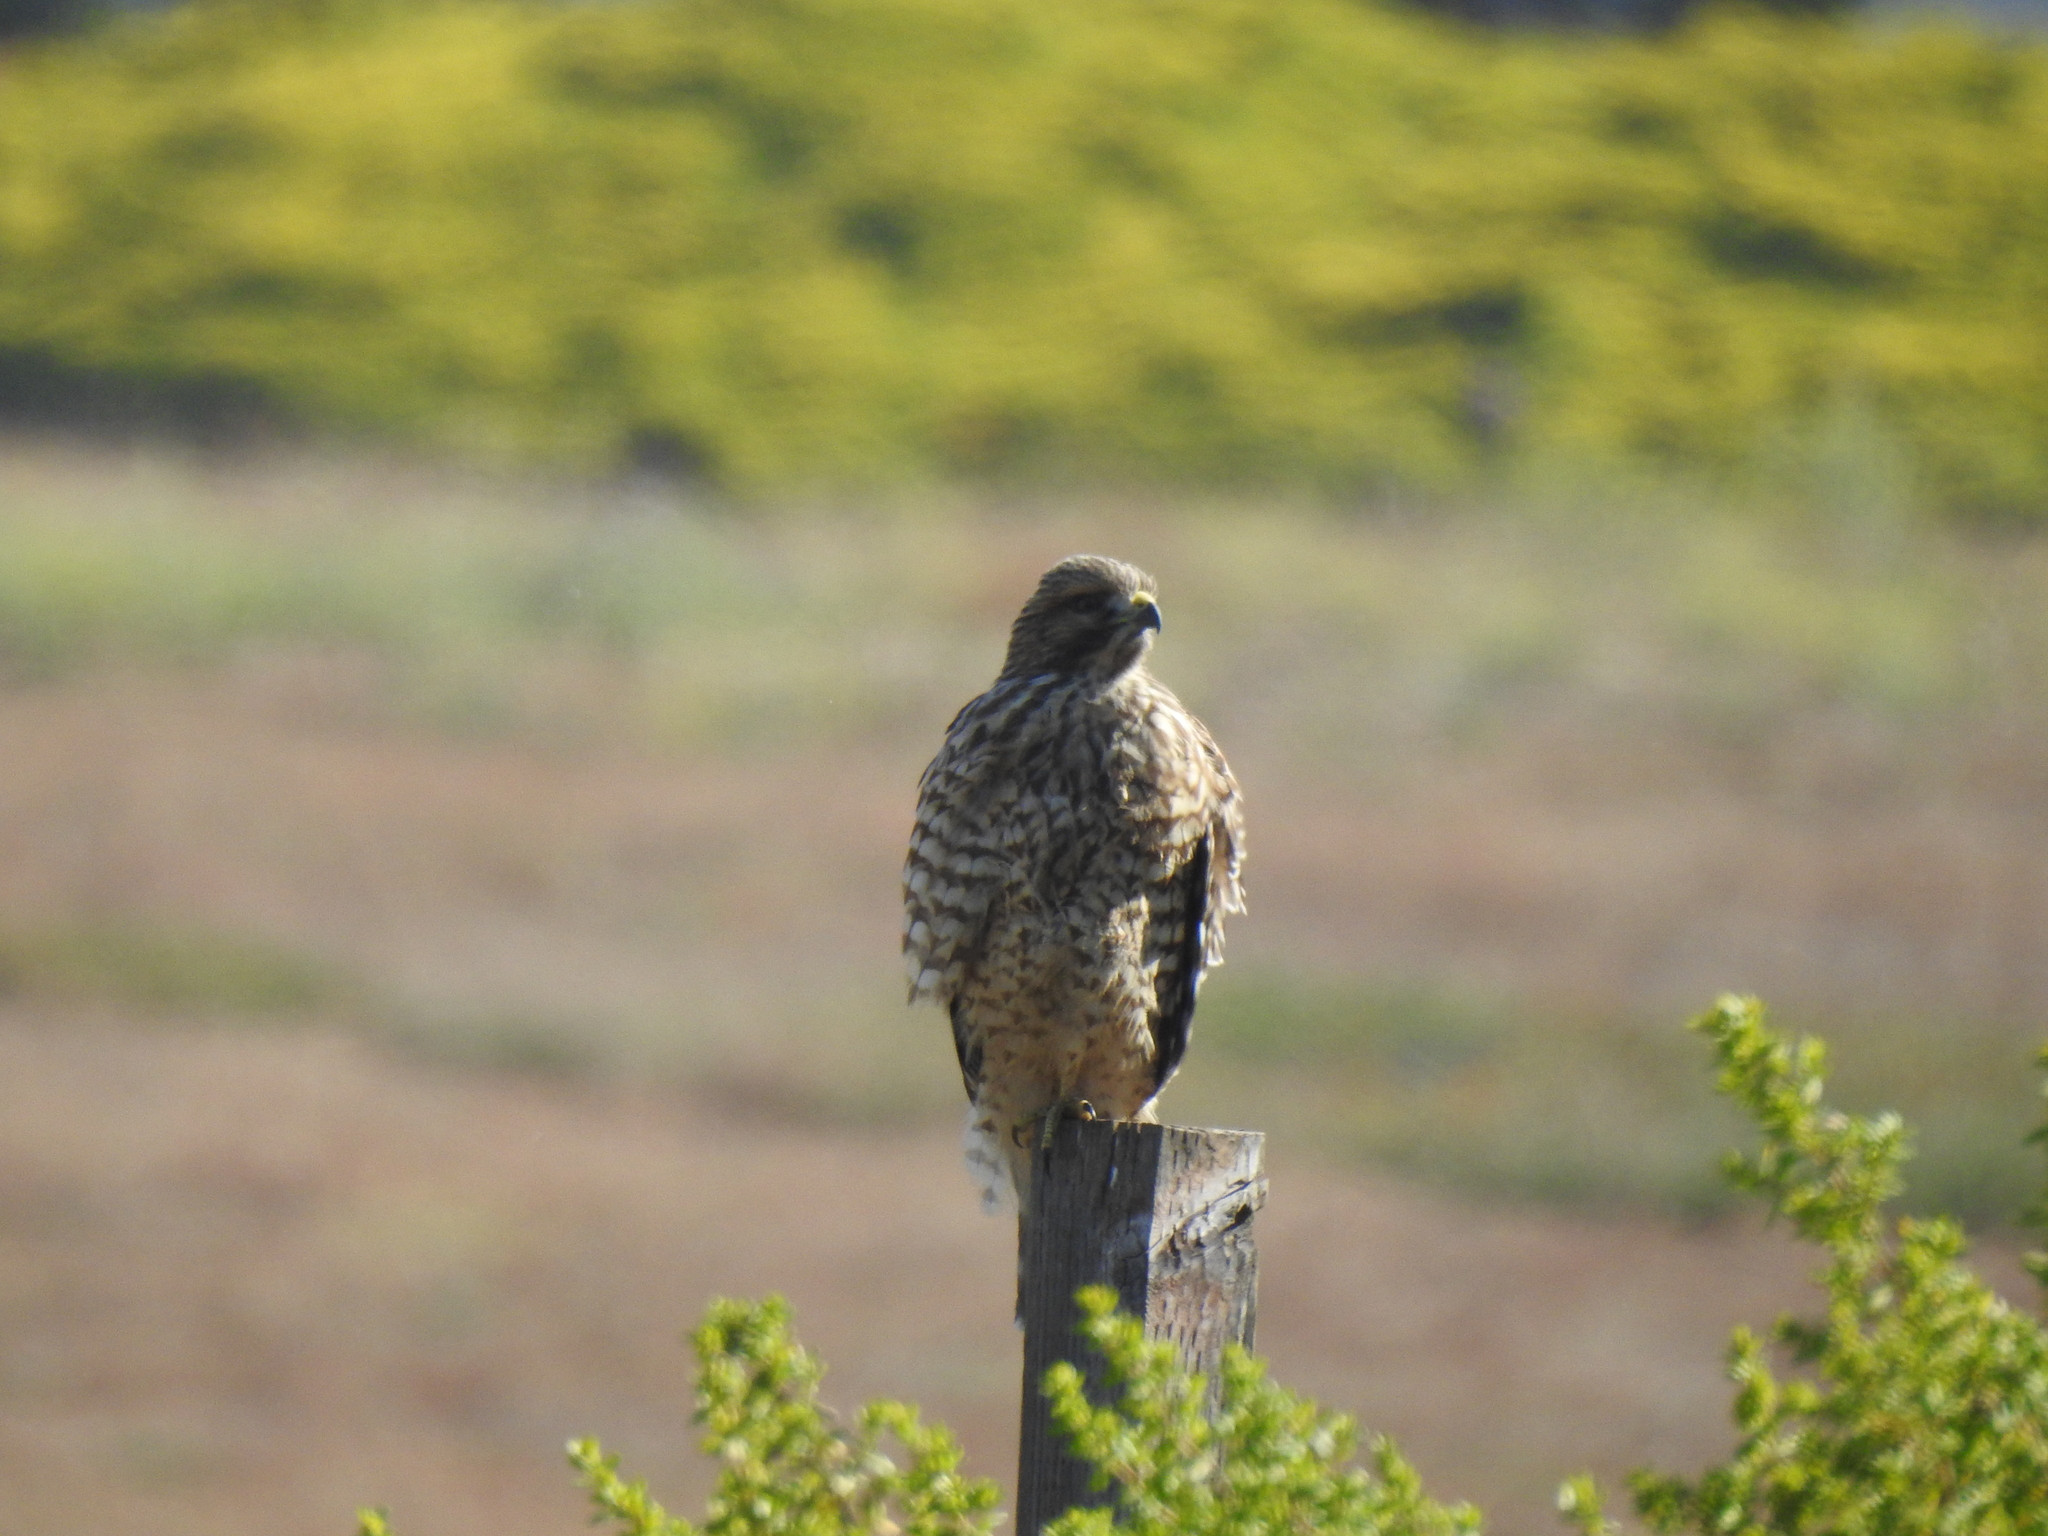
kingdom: Animalia
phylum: Chordata
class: Aves
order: Accipitriformes
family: Accipitridae
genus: Buteo
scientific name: Buteo lineatus
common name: Red-shouldered hawk
